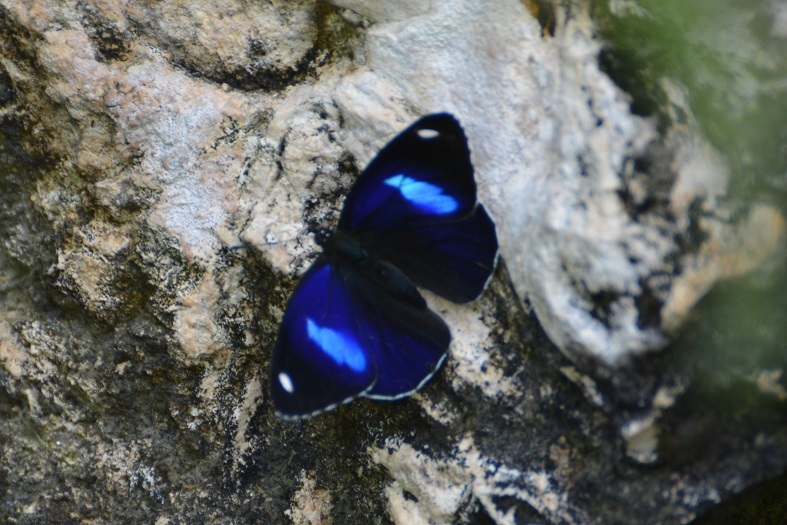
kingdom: Animalia
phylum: Arthropoda
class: Insecta
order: Lepidoptera
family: Nymphalidae
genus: Diaethria
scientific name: Diaethria astala
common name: Navy eighty-eight
